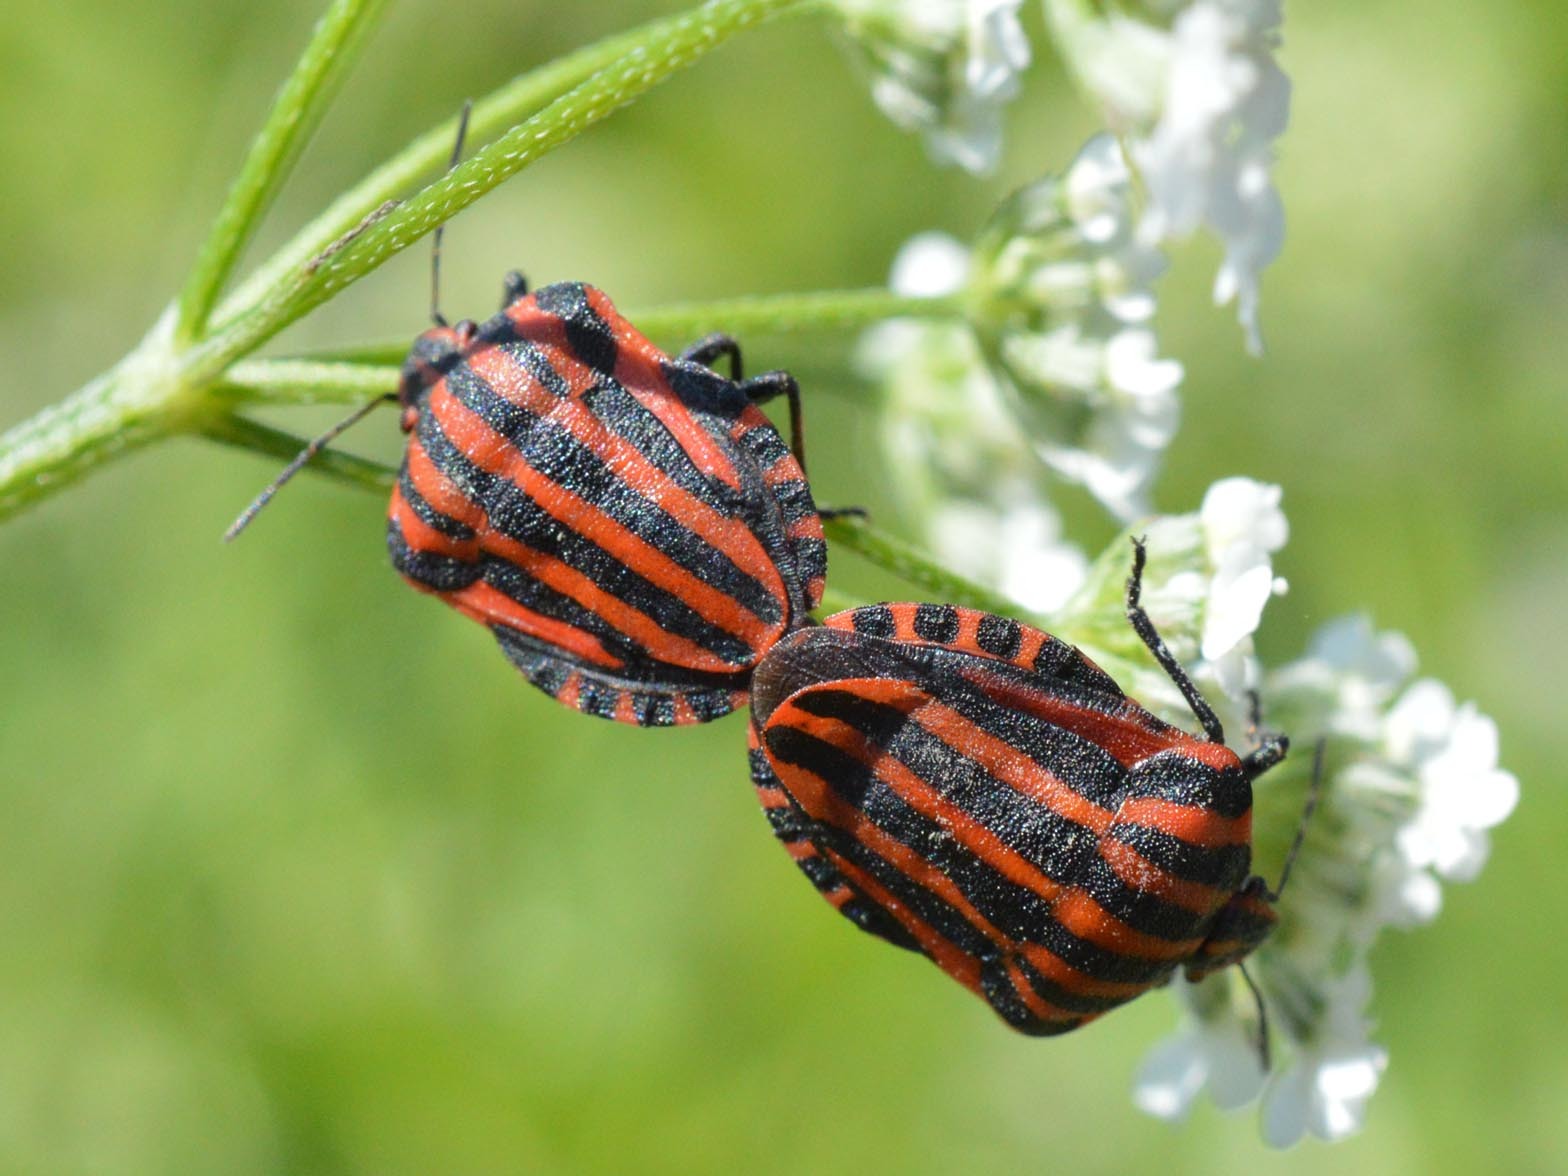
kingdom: Animalia
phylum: Arthropoda
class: Insecta
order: Hemiptera
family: Pentatomidae
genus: Graphosoma
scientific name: Graphosoma italicum
